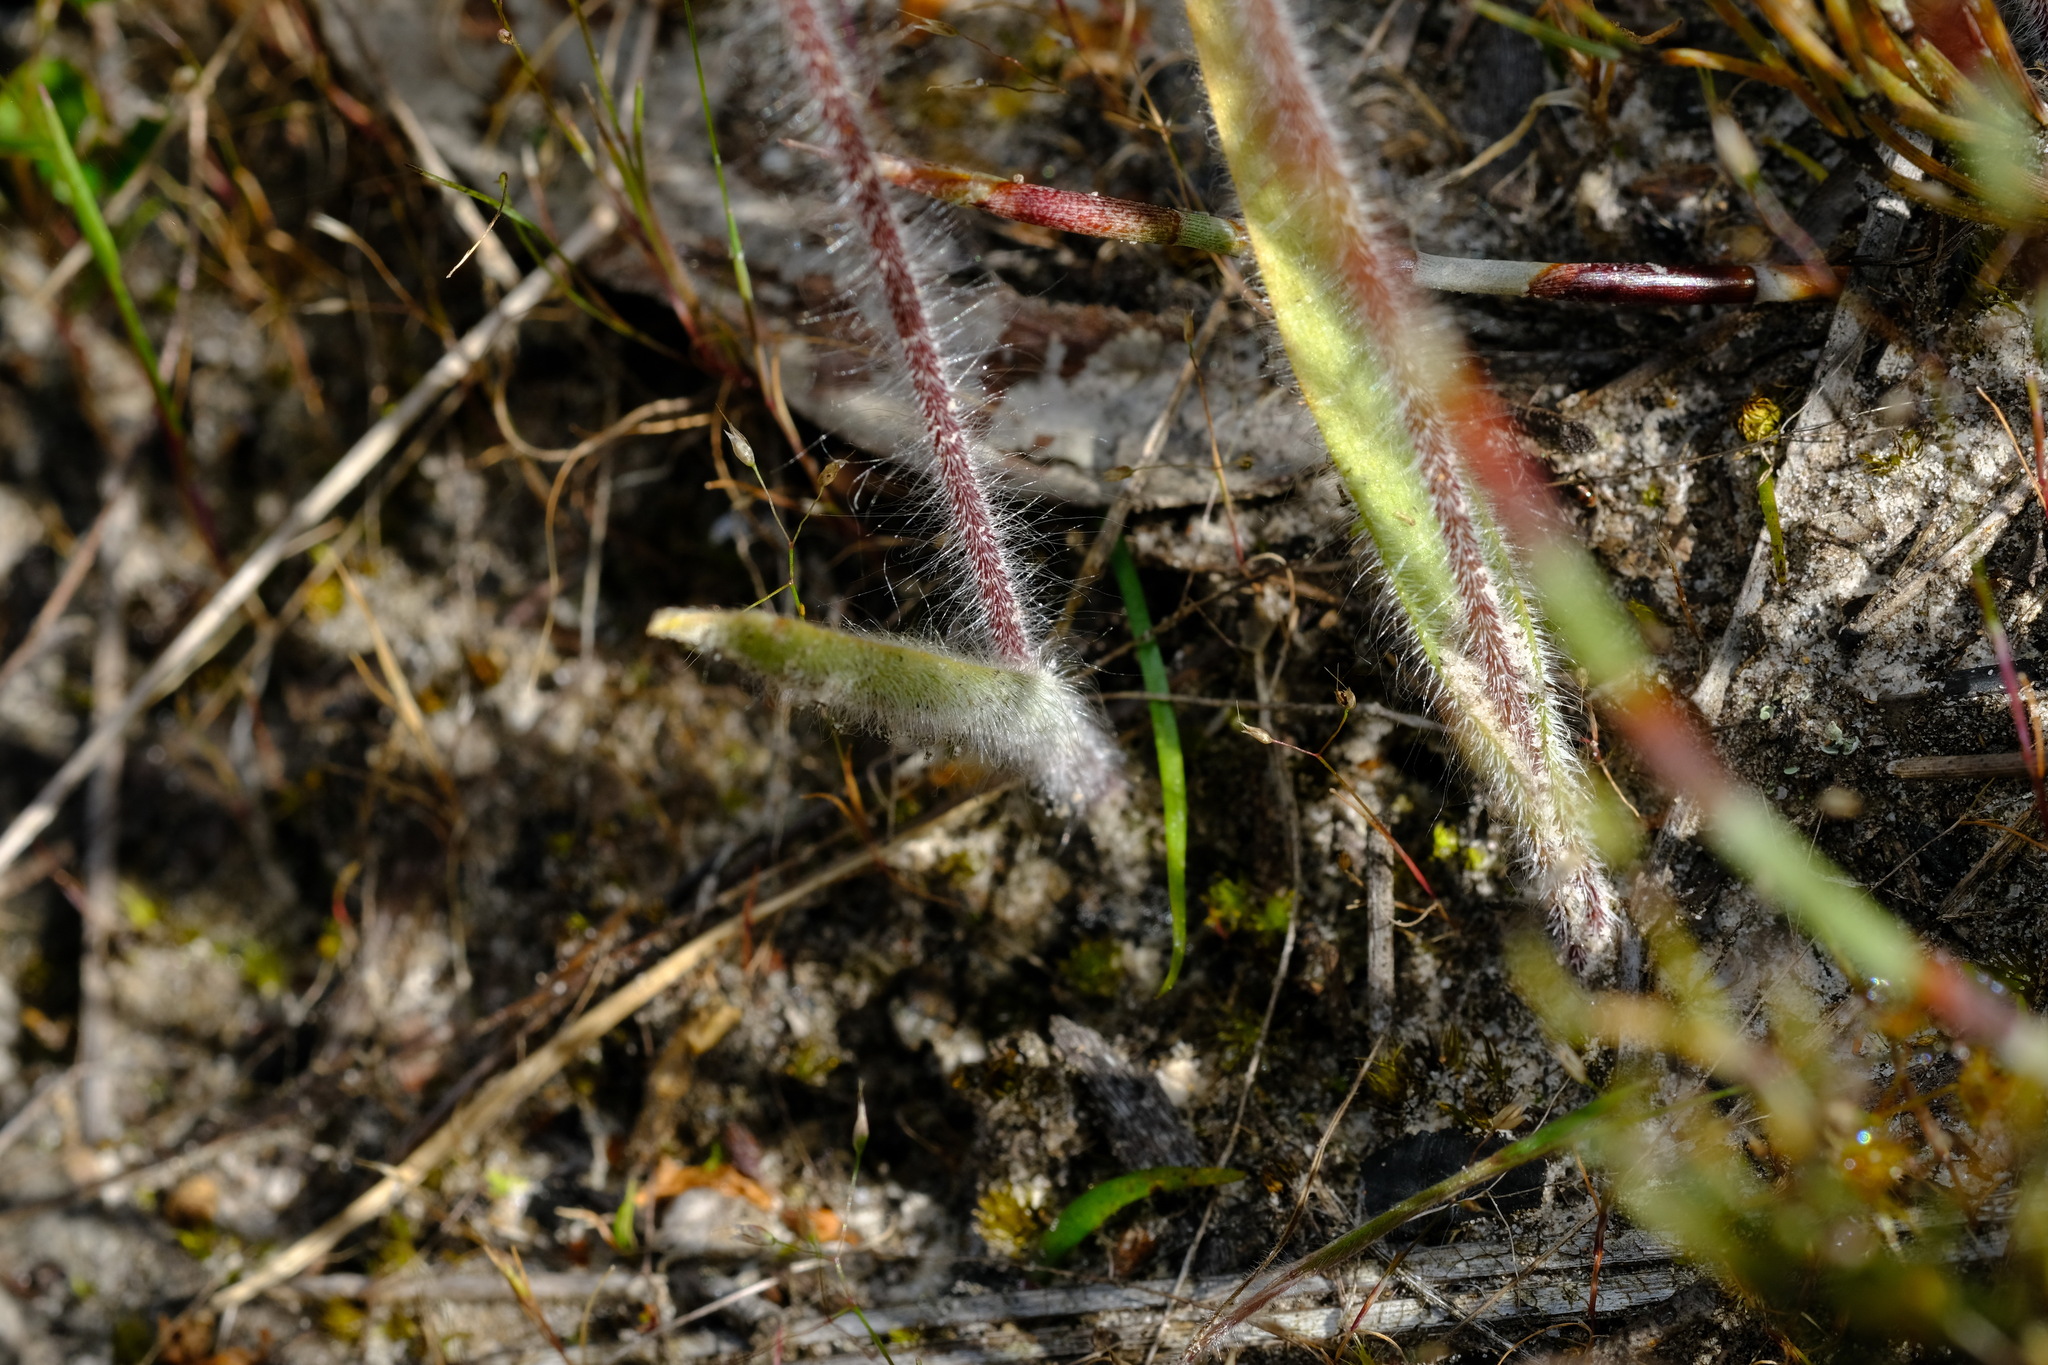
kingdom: Plantae
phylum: Tracheophyta
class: Liliopsida
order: Asparagales
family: Orchidaceae
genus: Caladenia
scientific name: Caladenia tentaculata
